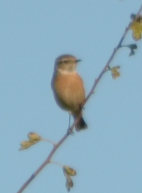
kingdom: Animalia
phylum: Chordata
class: Aves
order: Passeriformes
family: Muscicapidae
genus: Saxicola
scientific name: Saxicola rubicola
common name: European stonechat
